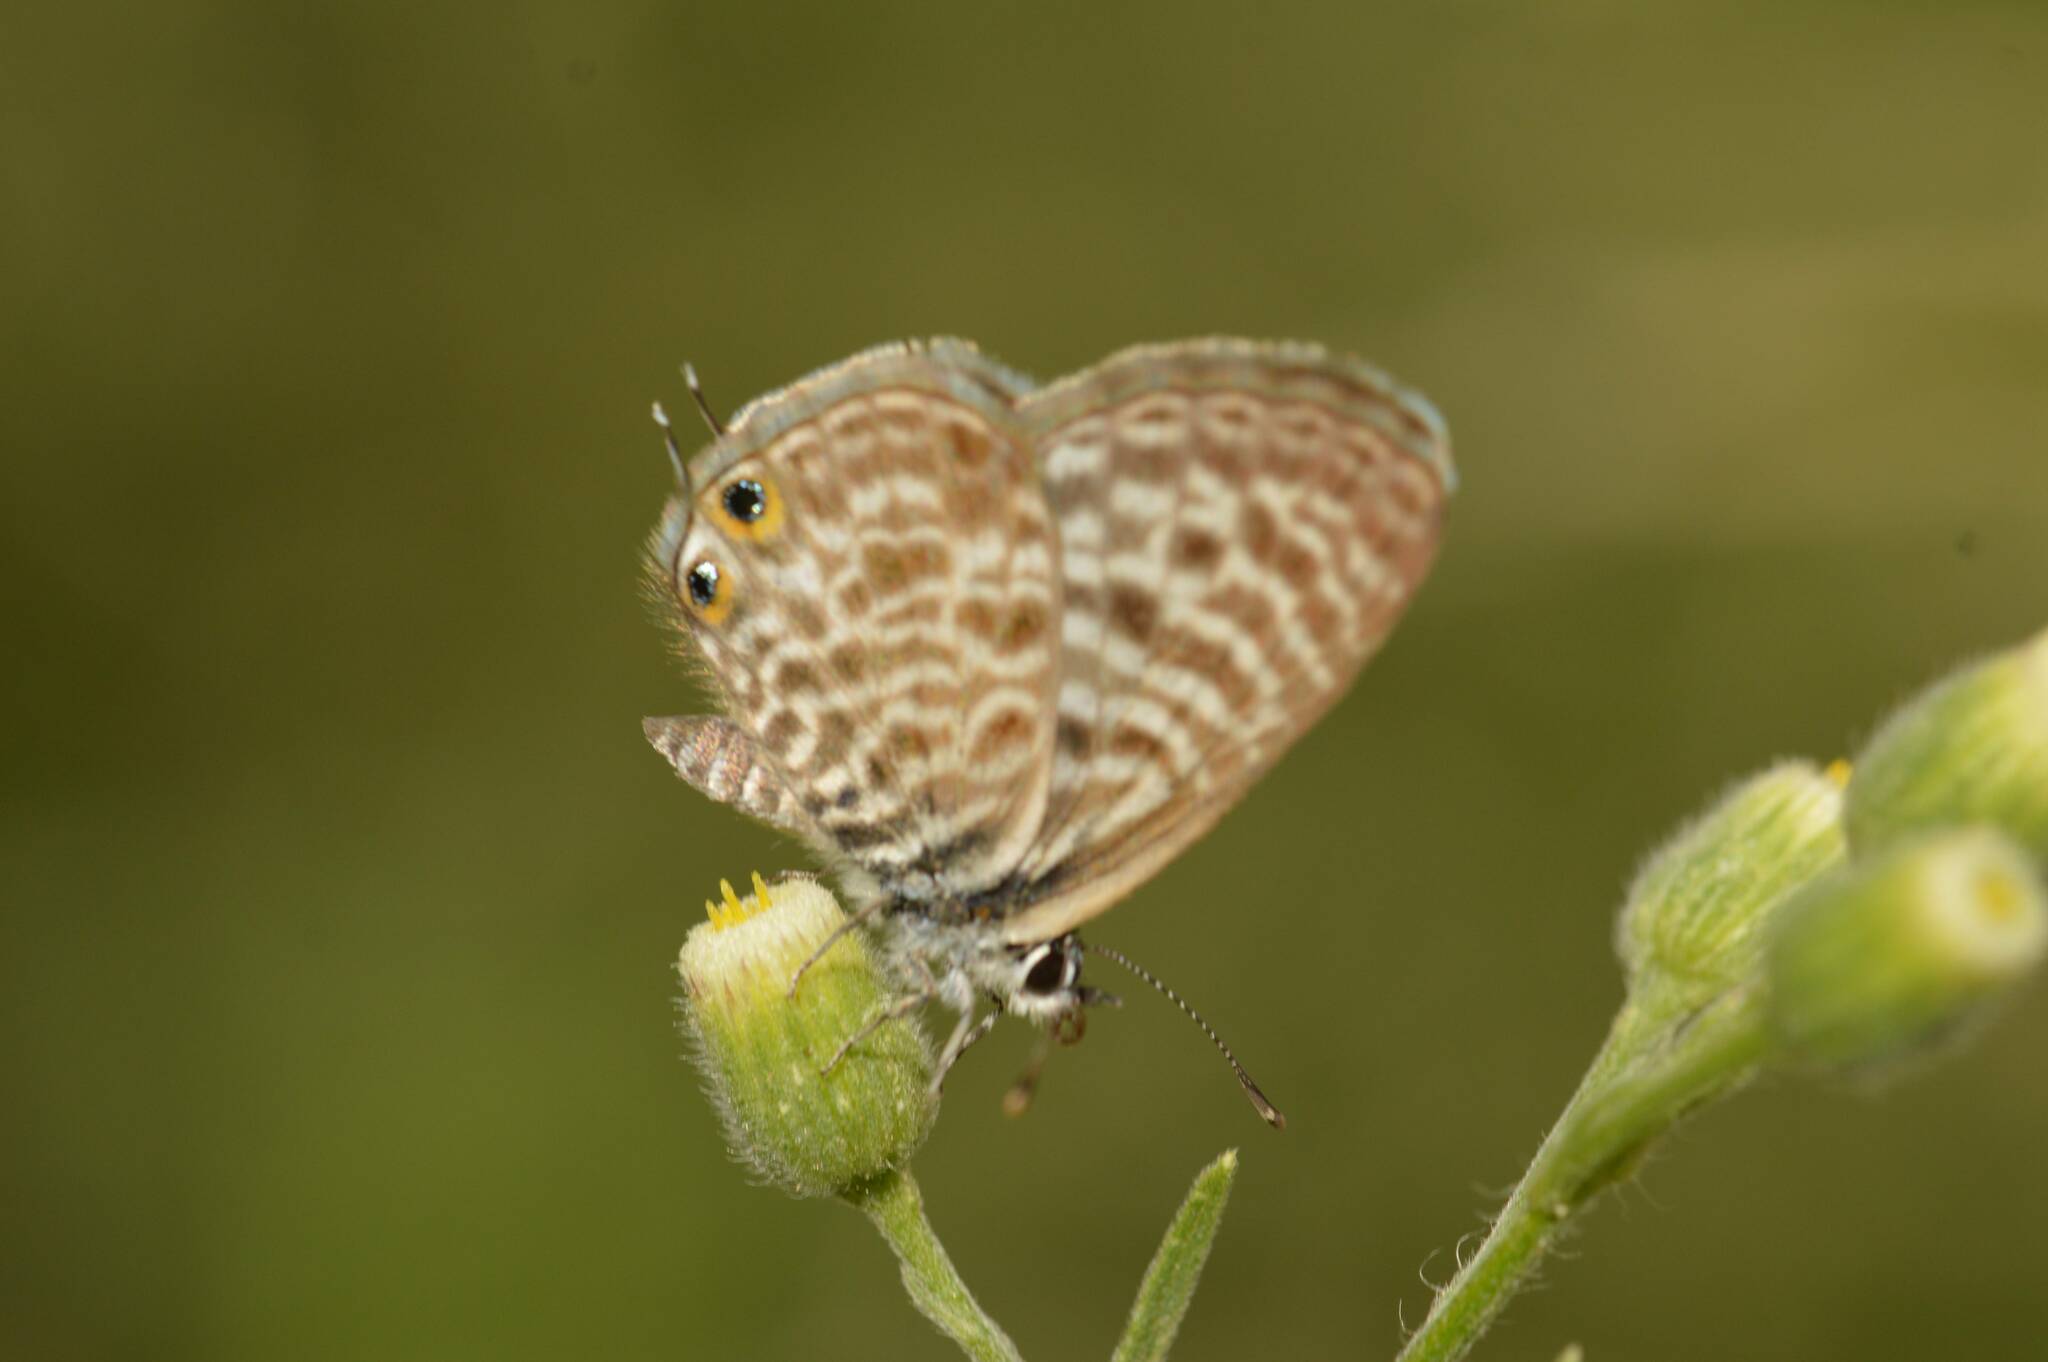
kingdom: Animalia
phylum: Arthropoda
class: Insecta
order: Lepidoptera
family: Lycaenidae
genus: Leptotes
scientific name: Leptotes pirithous
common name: Lang's short-tailed blue
